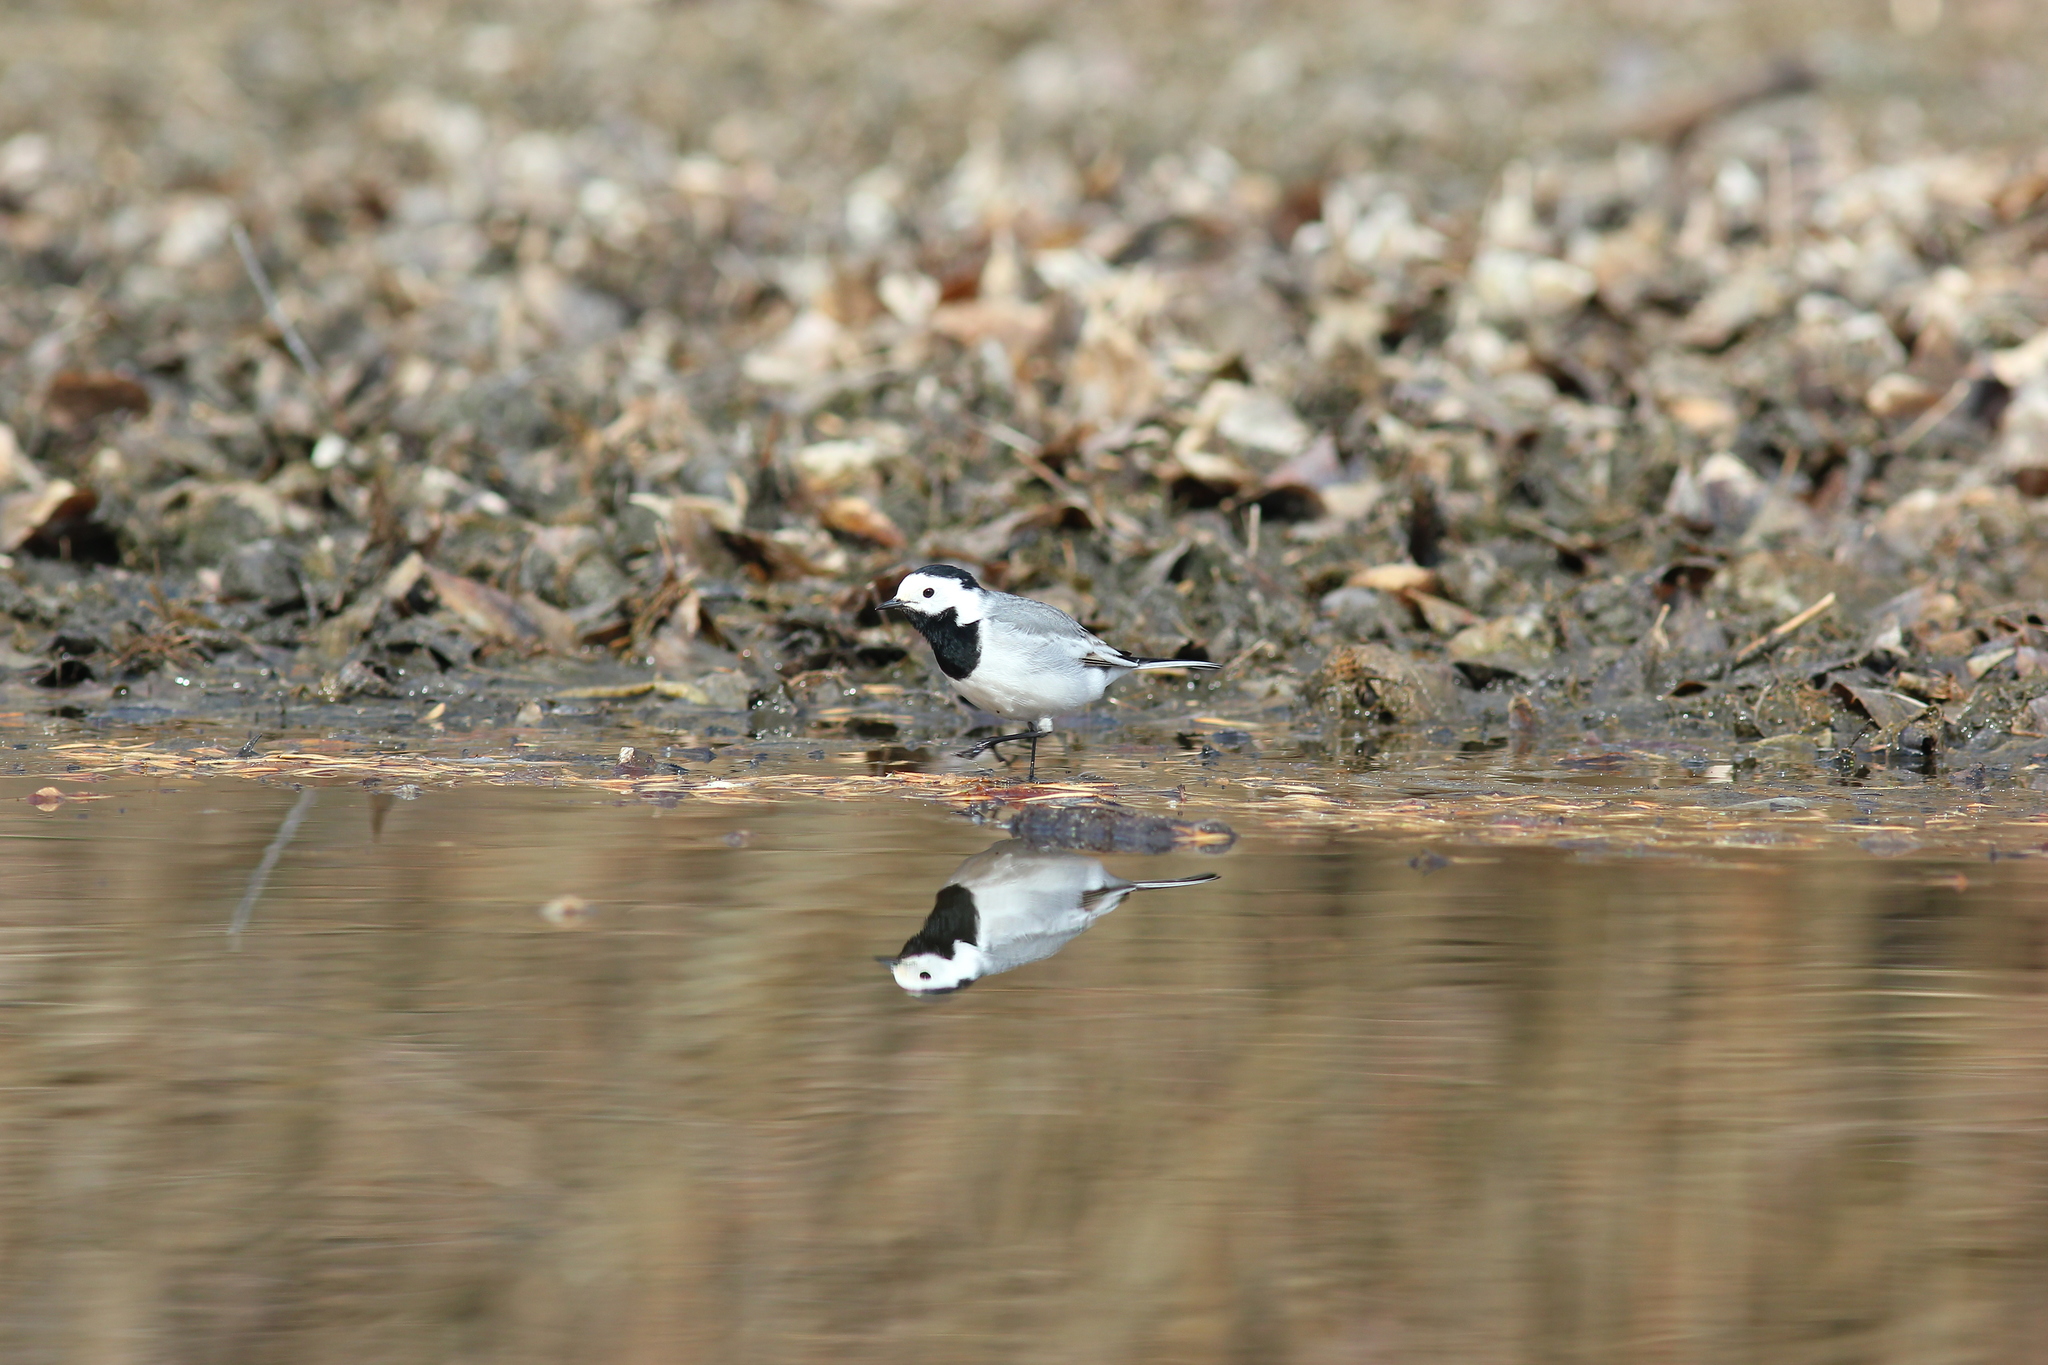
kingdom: Animalia
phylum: Chordata
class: Aves
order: Passeriformes
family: Motacillidae
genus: Motacilla
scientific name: Motacilla alba
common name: White wagtail
